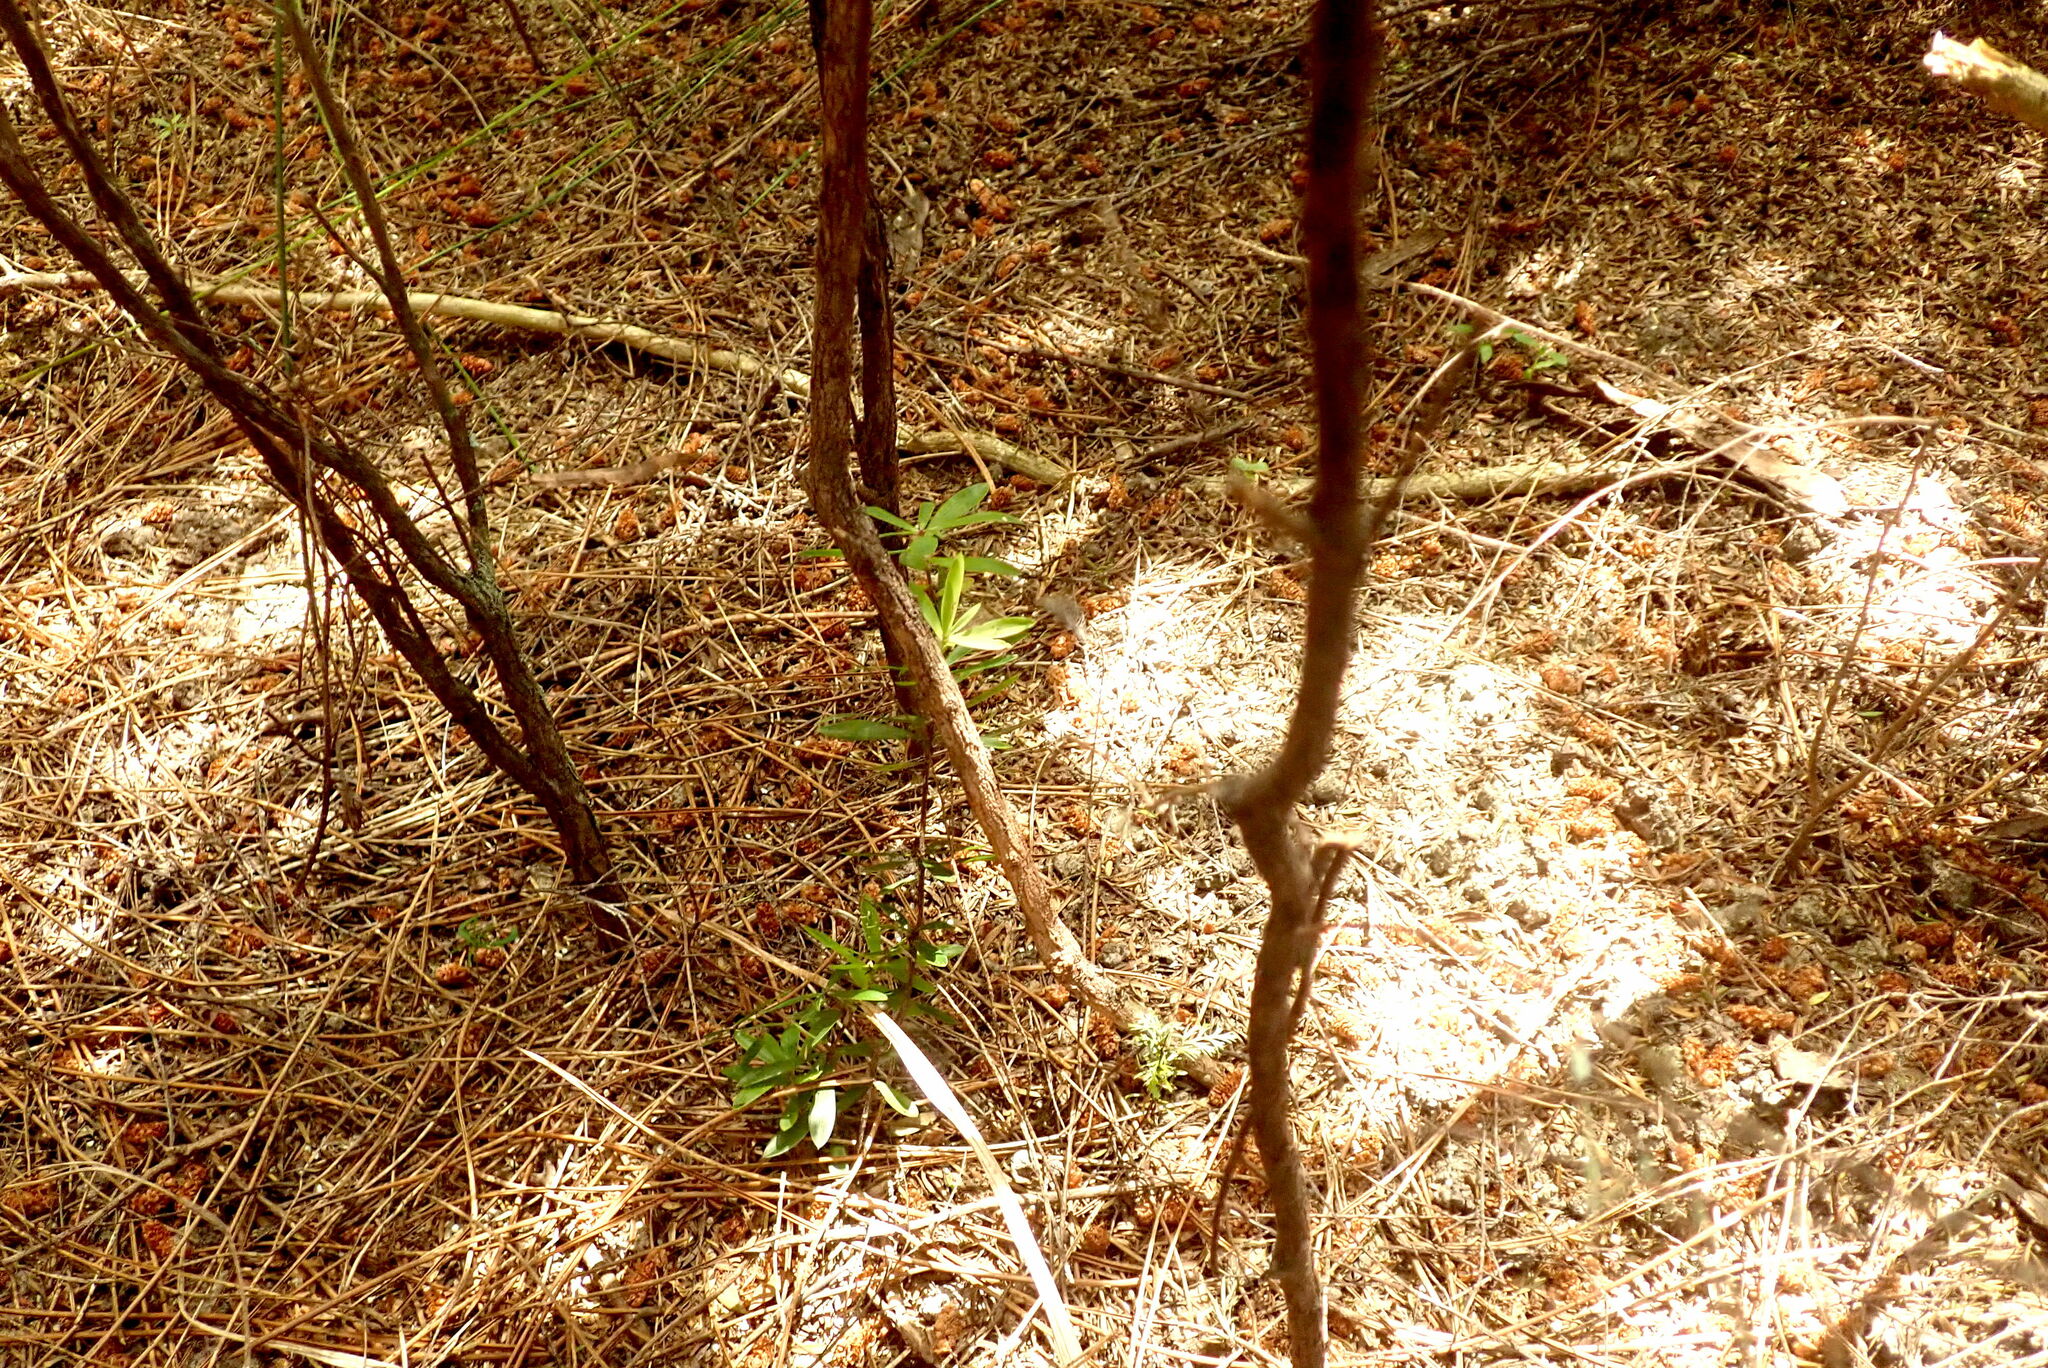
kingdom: Plantae
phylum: Tracheophyta
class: Magnoliopsida
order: Ericales
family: Ericaceae
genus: Leucopogon
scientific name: Leucopogon fasciculatus
